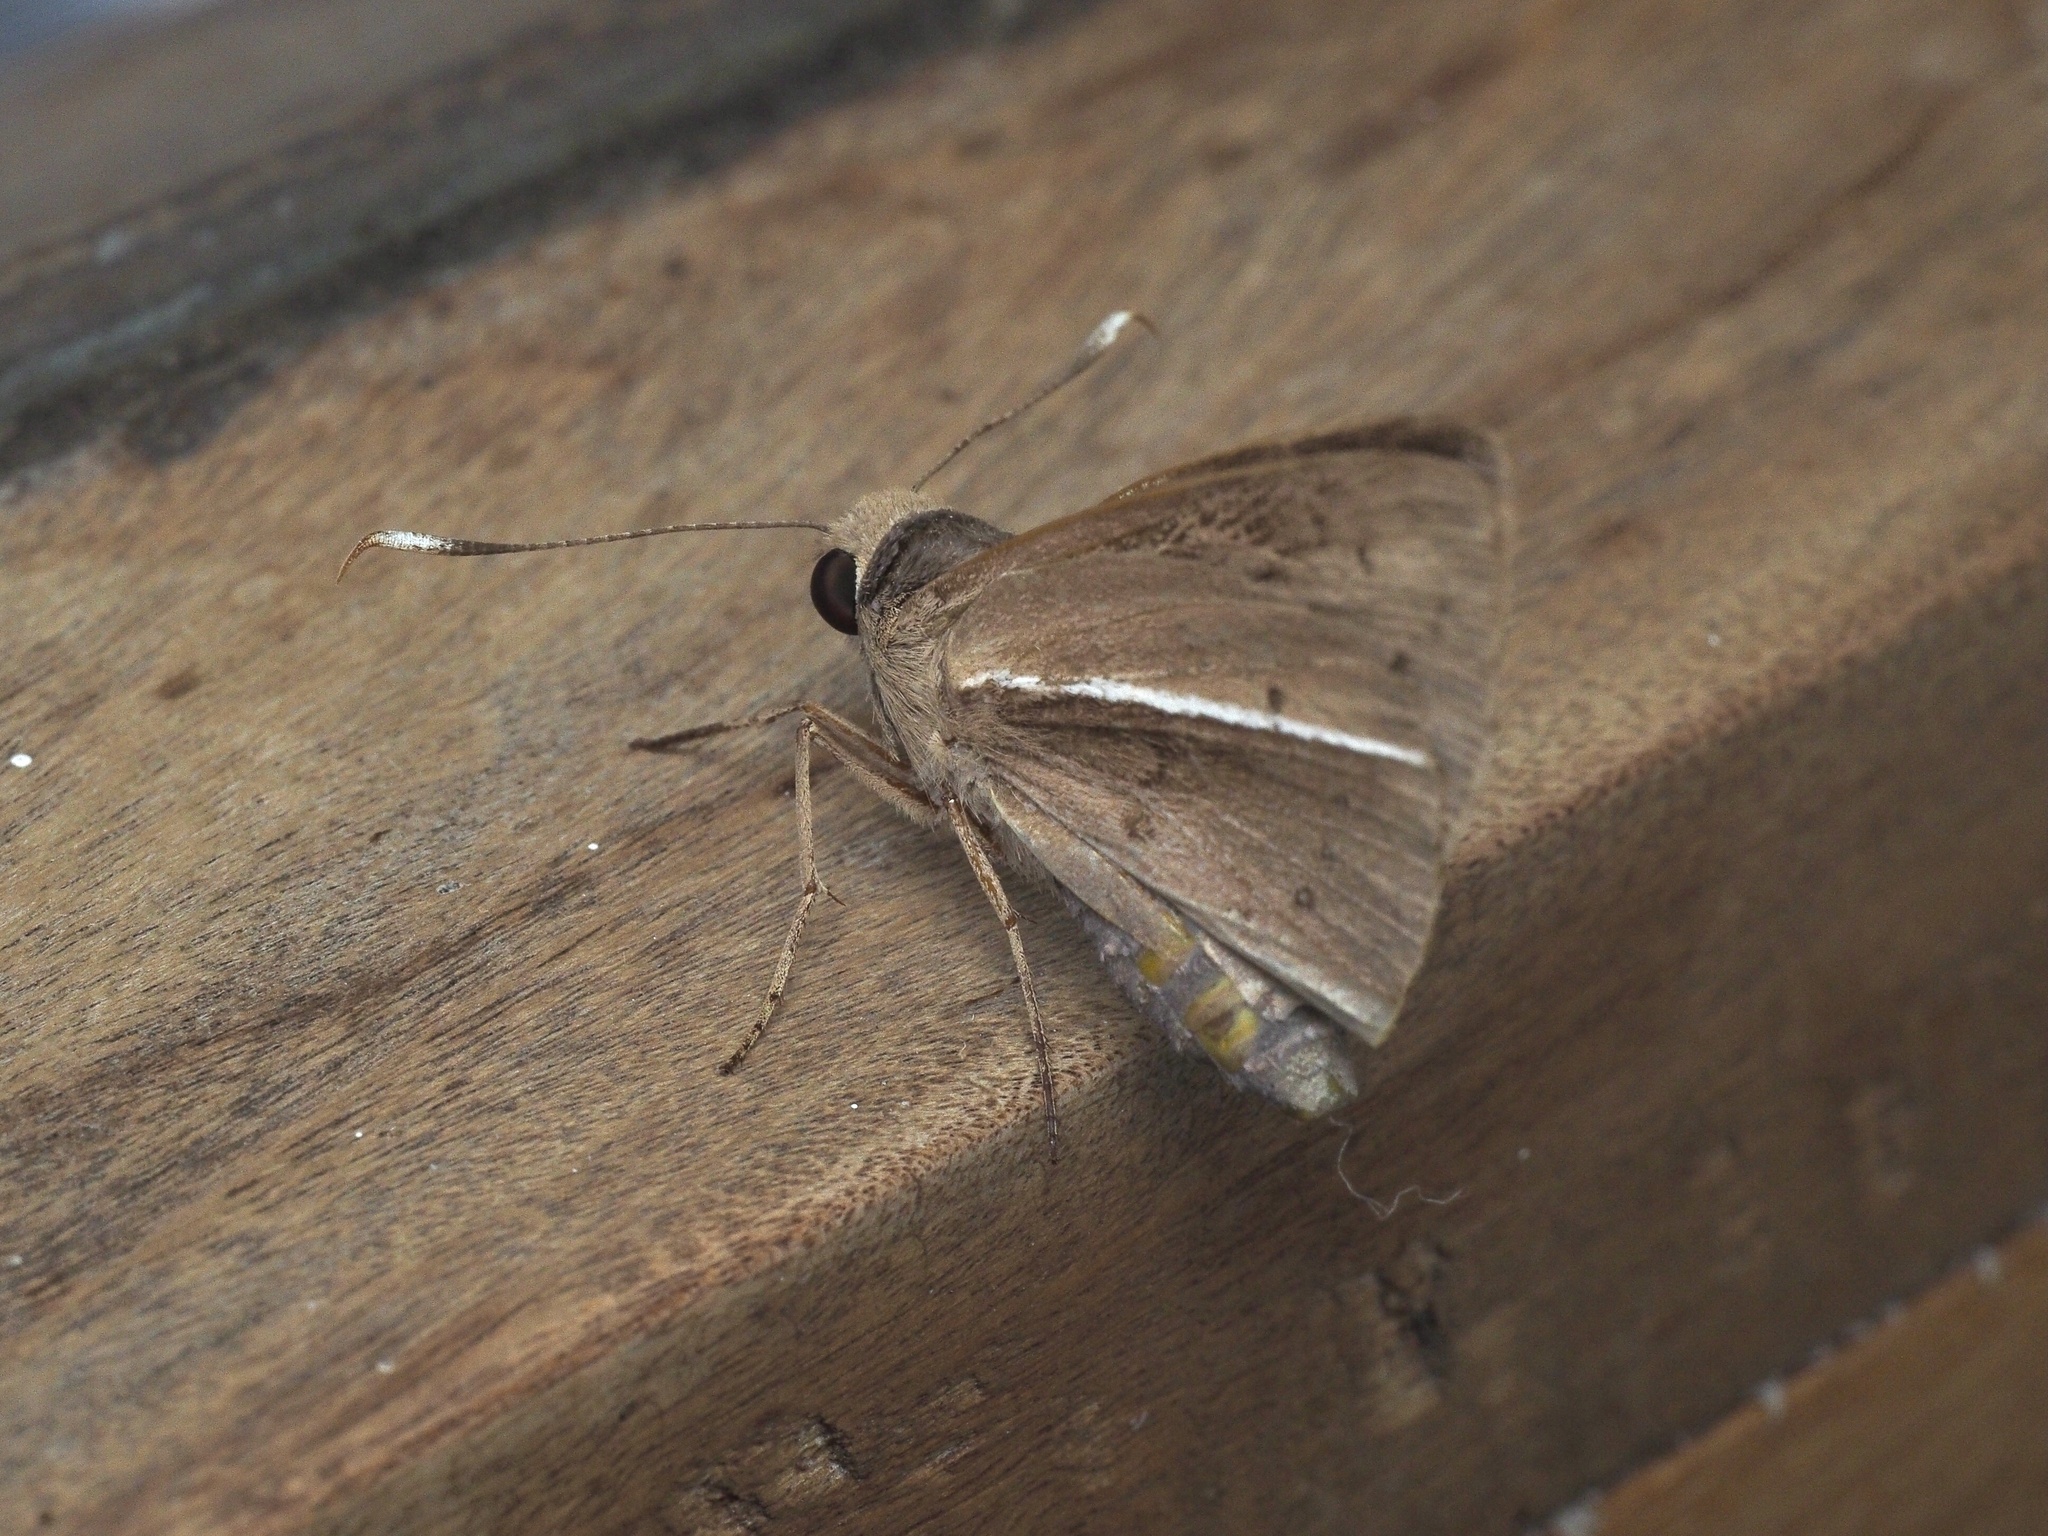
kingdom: Animalia
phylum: Arthropoda
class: Insecta
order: Lepidoptera
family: Hesperiidae
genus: Zophopetes
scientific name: Zophopetes dysmephila
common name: Palm-tree nightfighter
